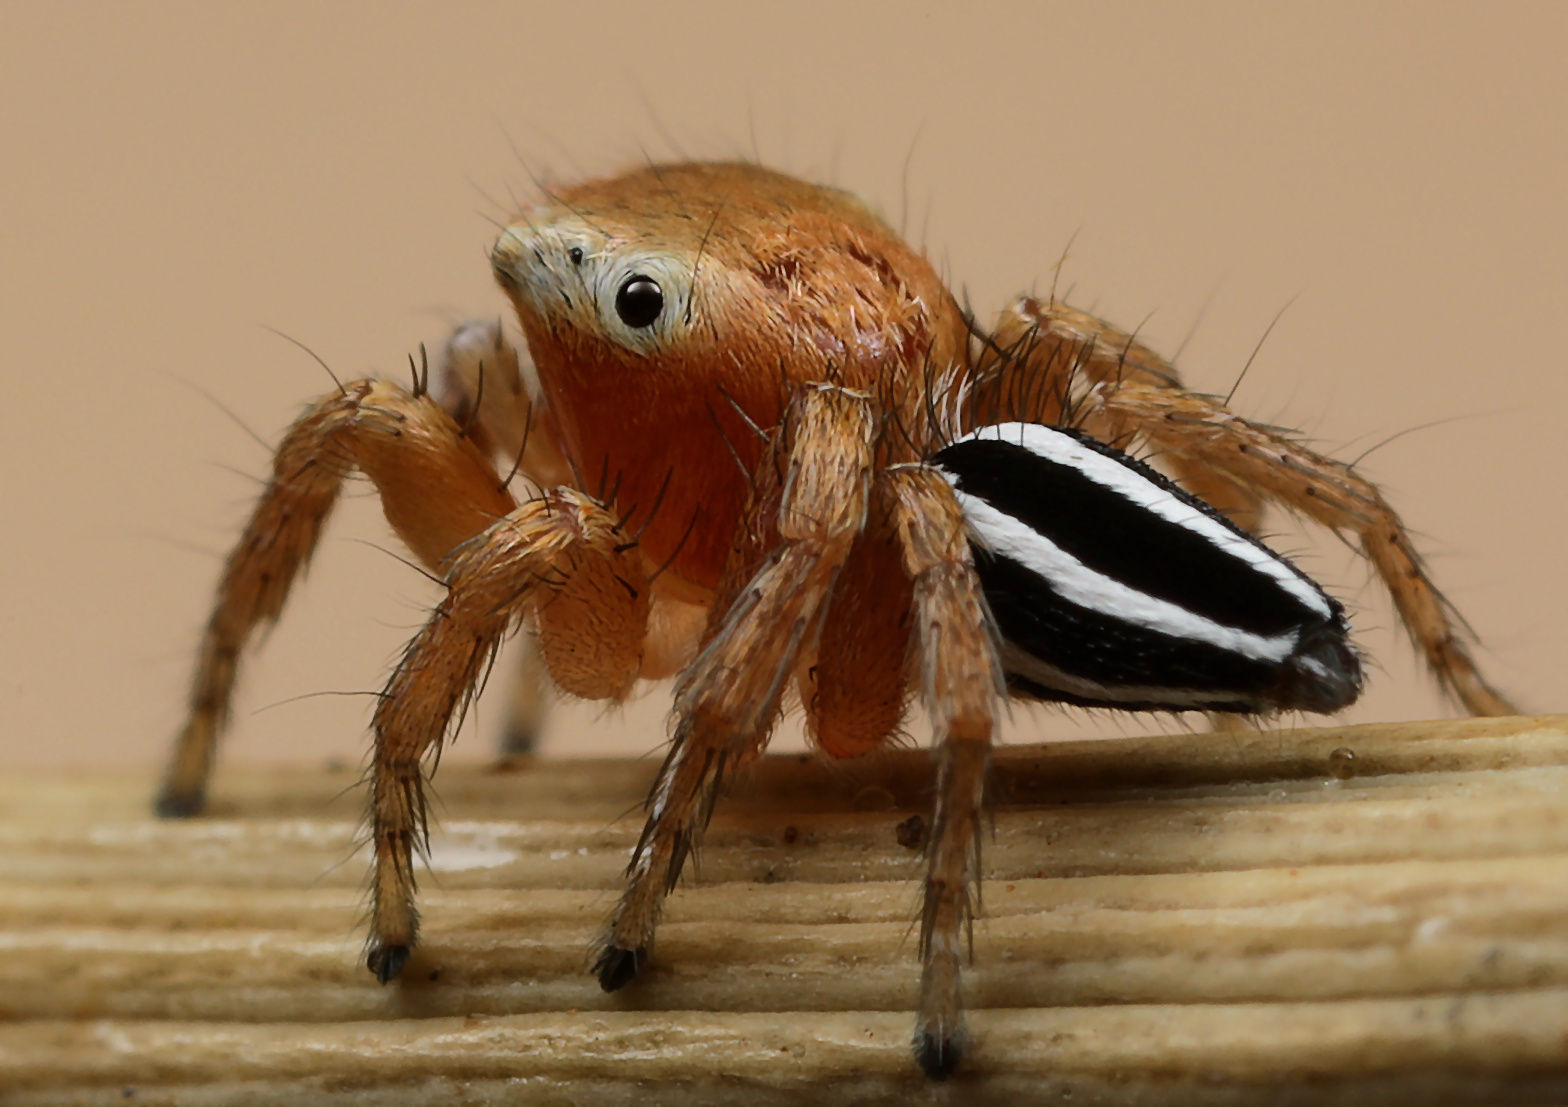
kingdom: Animalia
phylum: Arthropoda
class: Arachnida
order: Araneae
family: Salticidae
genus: Evarcha
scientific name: Evarcha striolata
